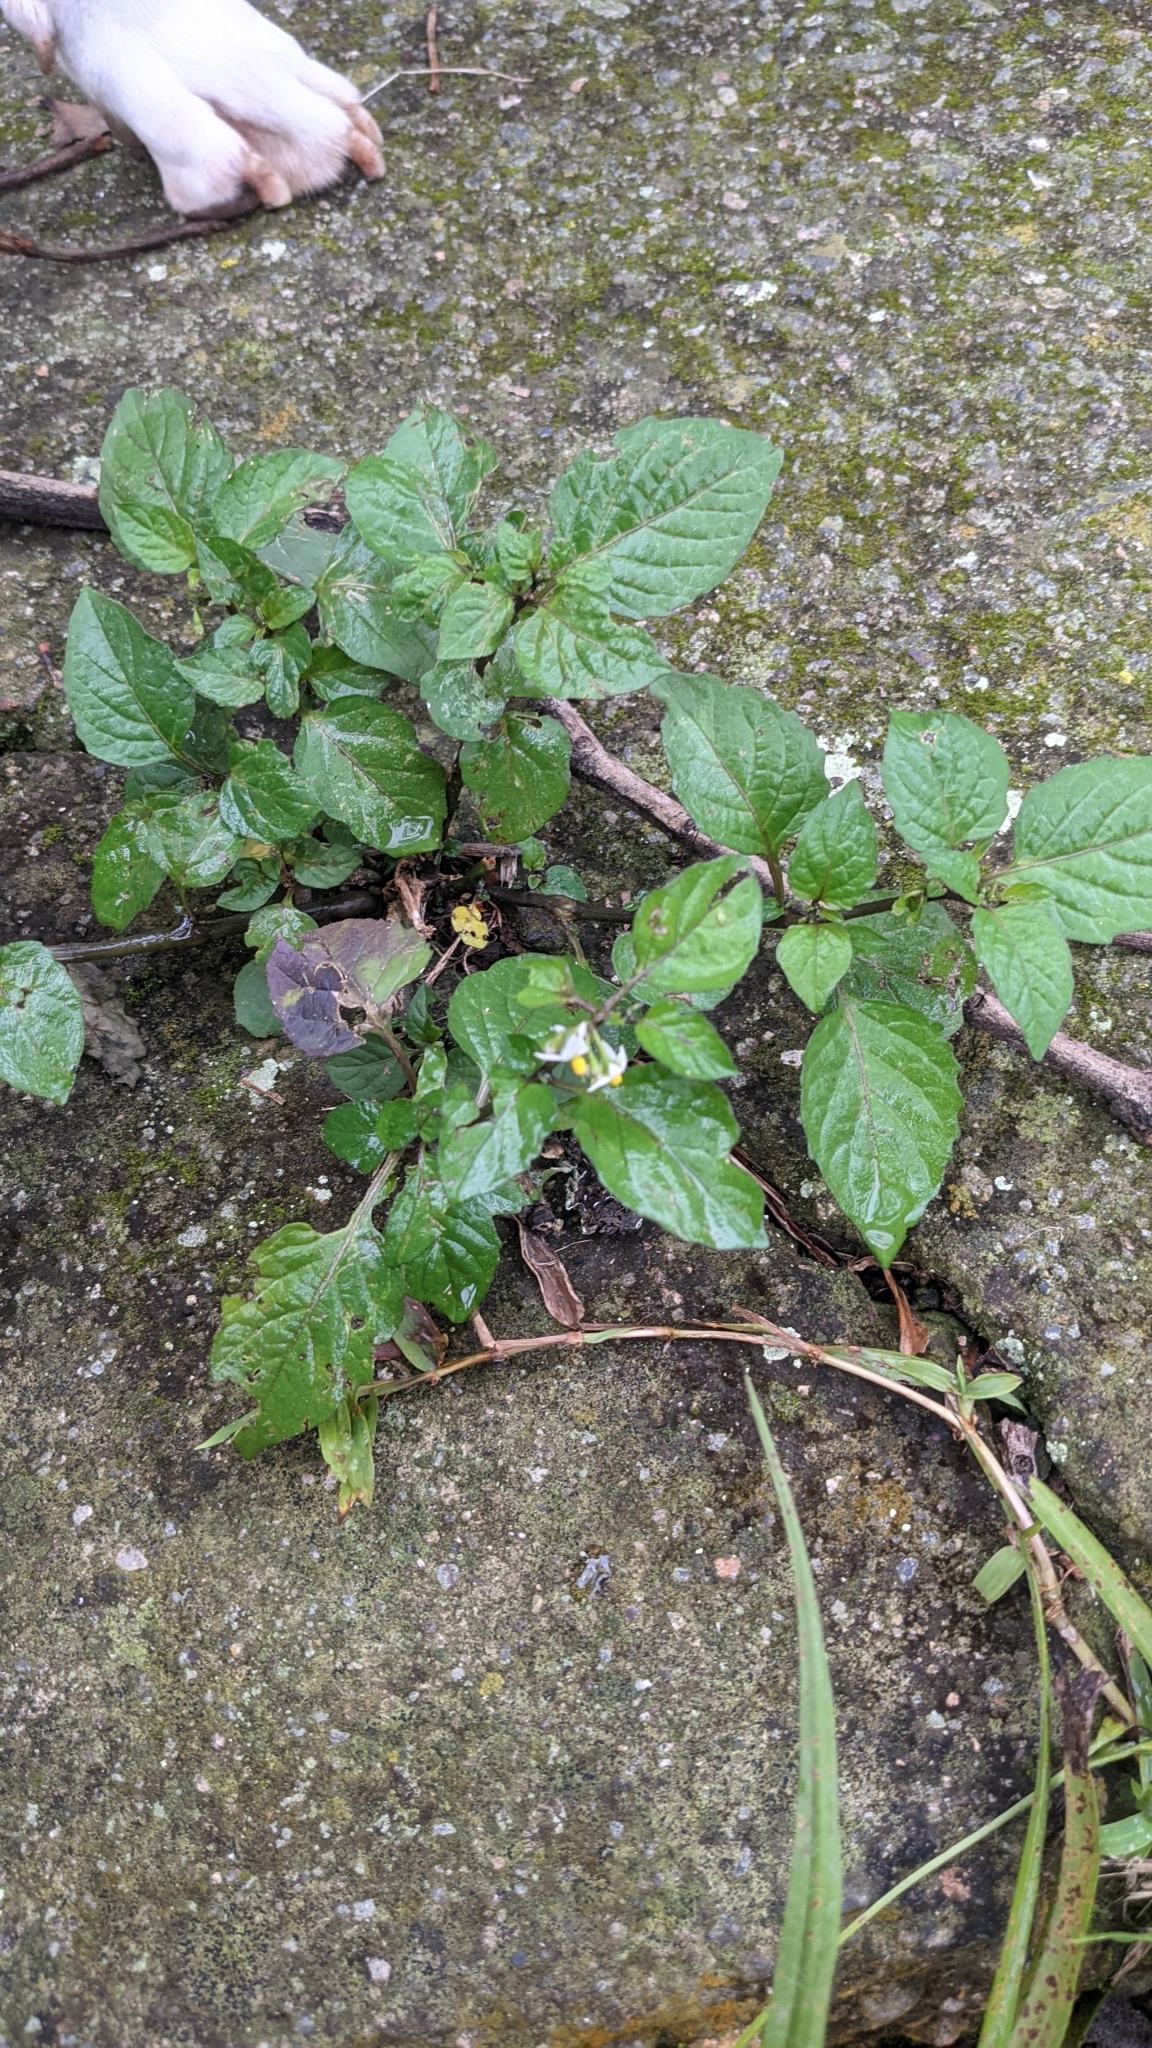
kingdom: Plantae
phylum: Tracheophyta
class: Magnoliopsida
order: Solanales
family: Solanaceae
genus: Solanum
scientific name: Solanum americanum
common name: American black nightshade
